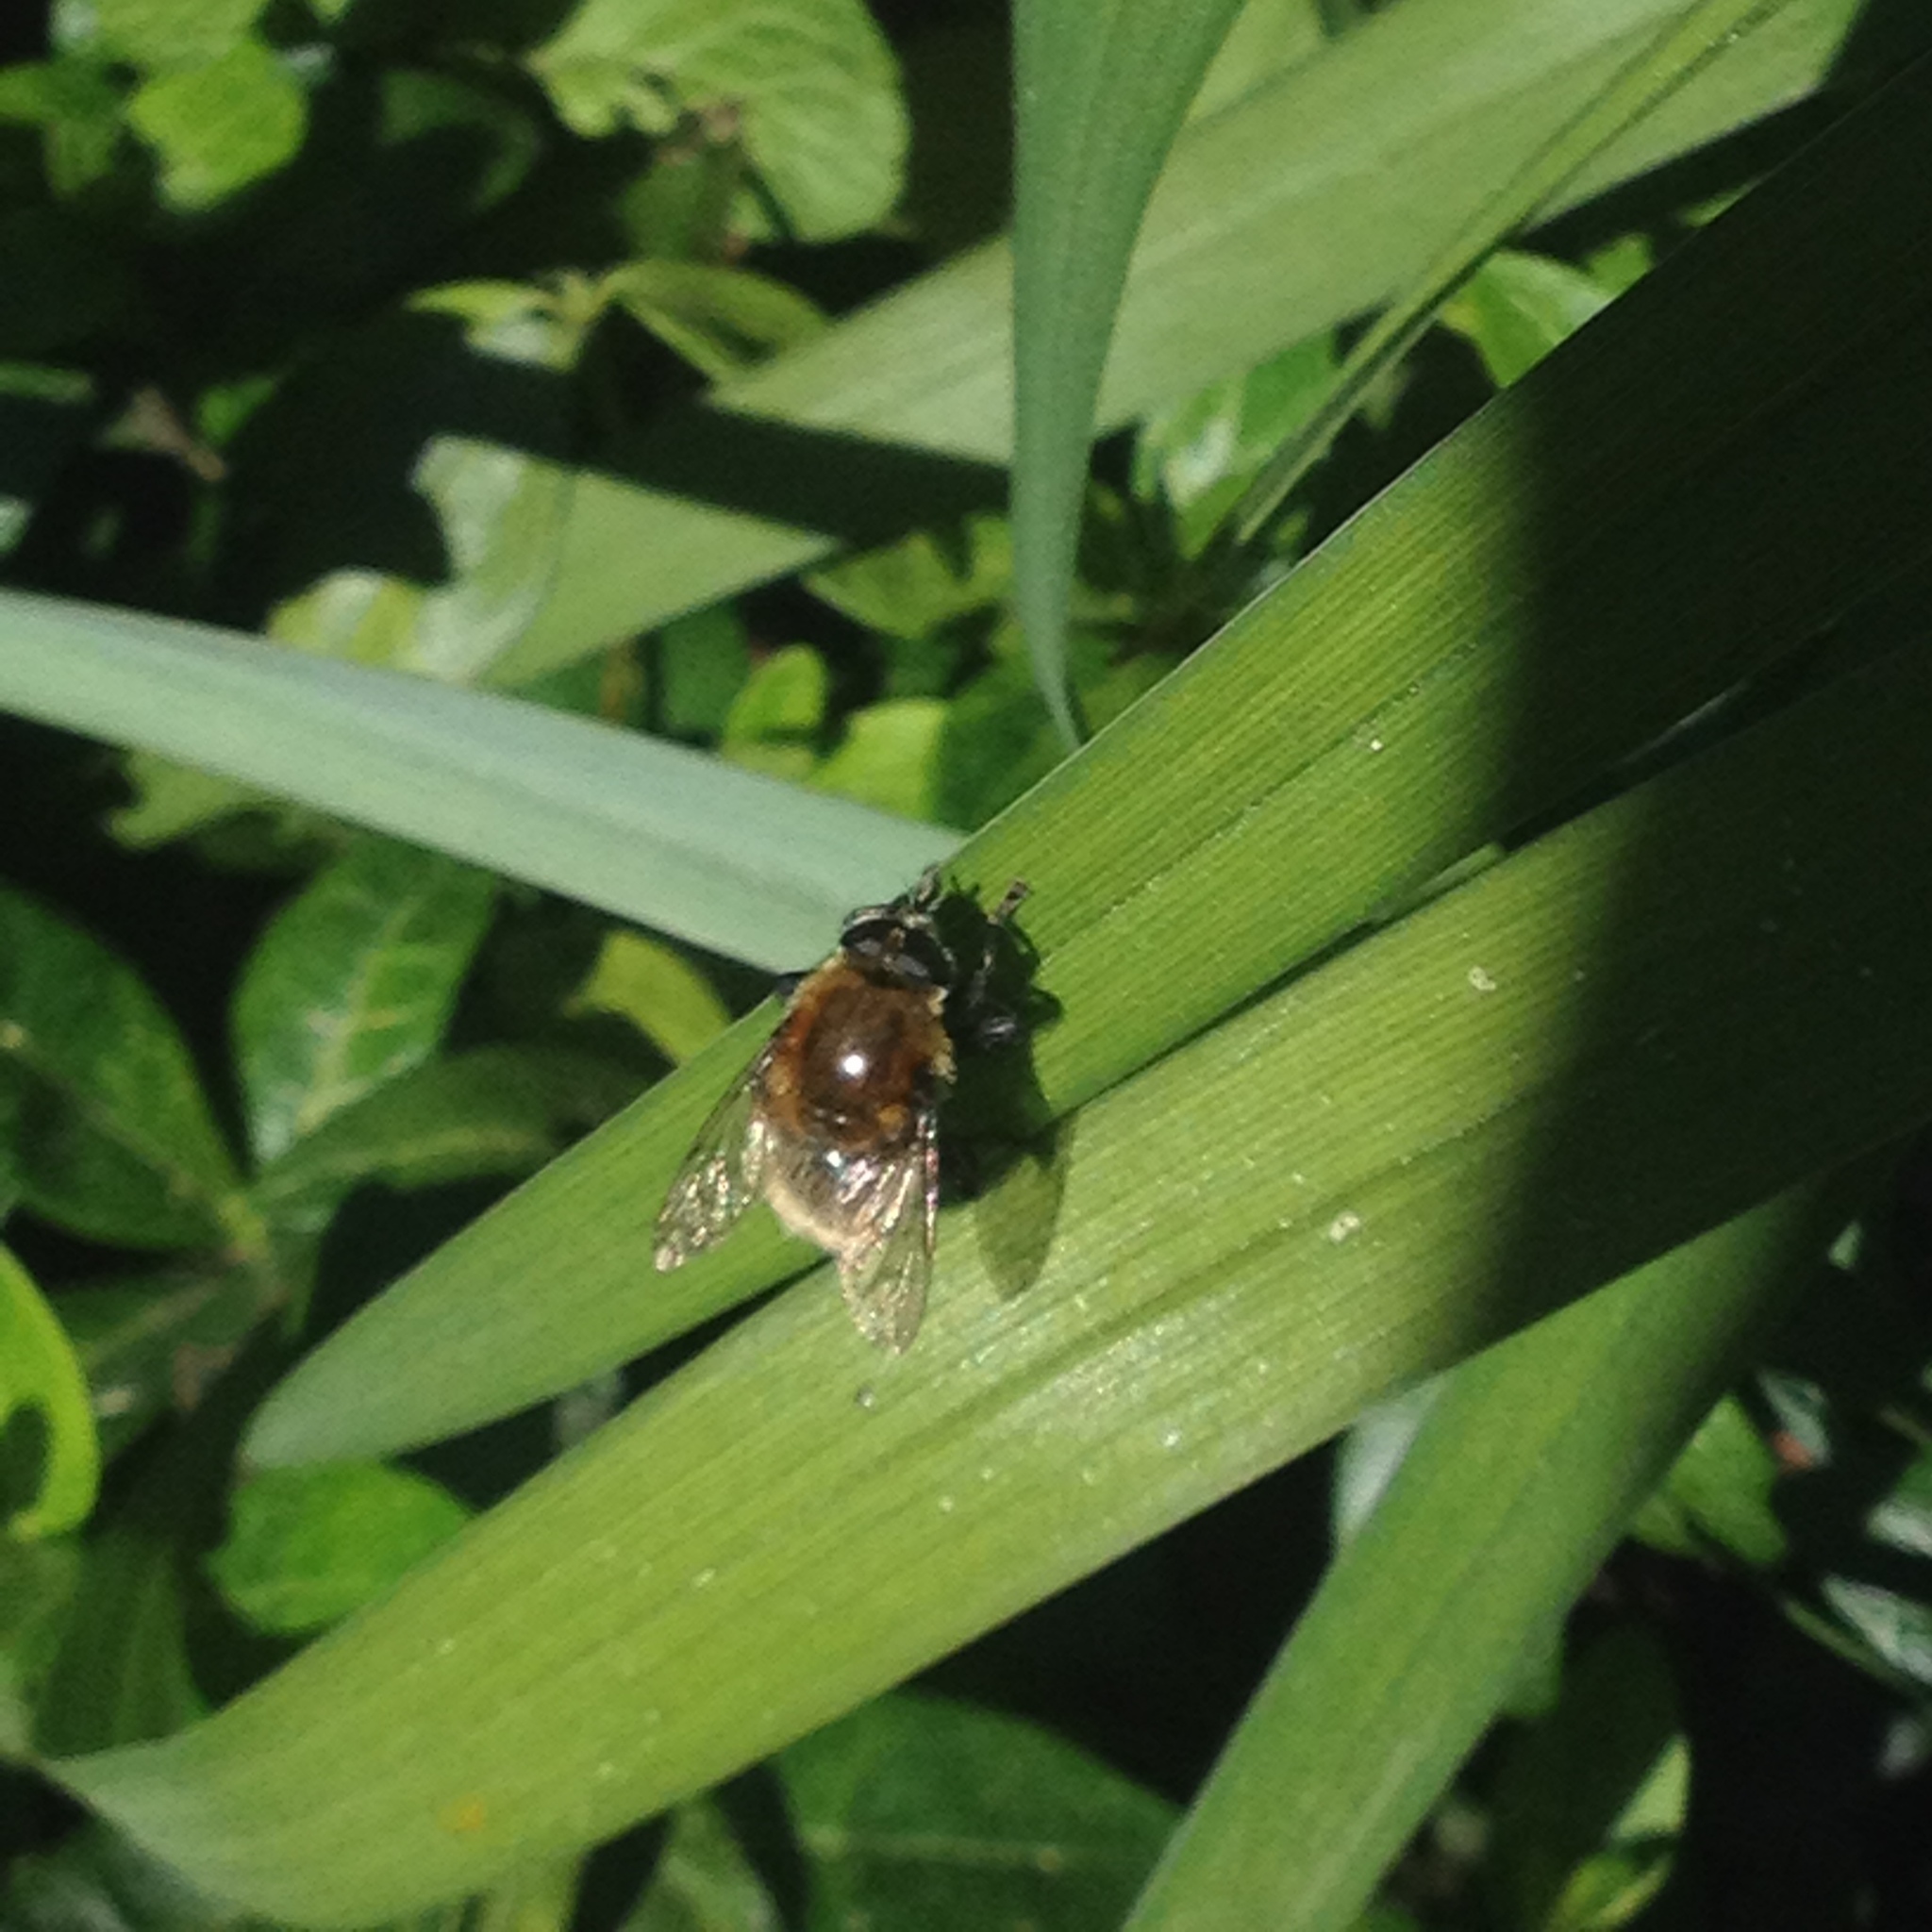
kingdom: Animalia
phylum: Arthropoda
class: Insecta
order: Diptera
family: Syrphidae
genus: Merodon
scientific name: Merodon equestris
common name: Greater bulb-fly
